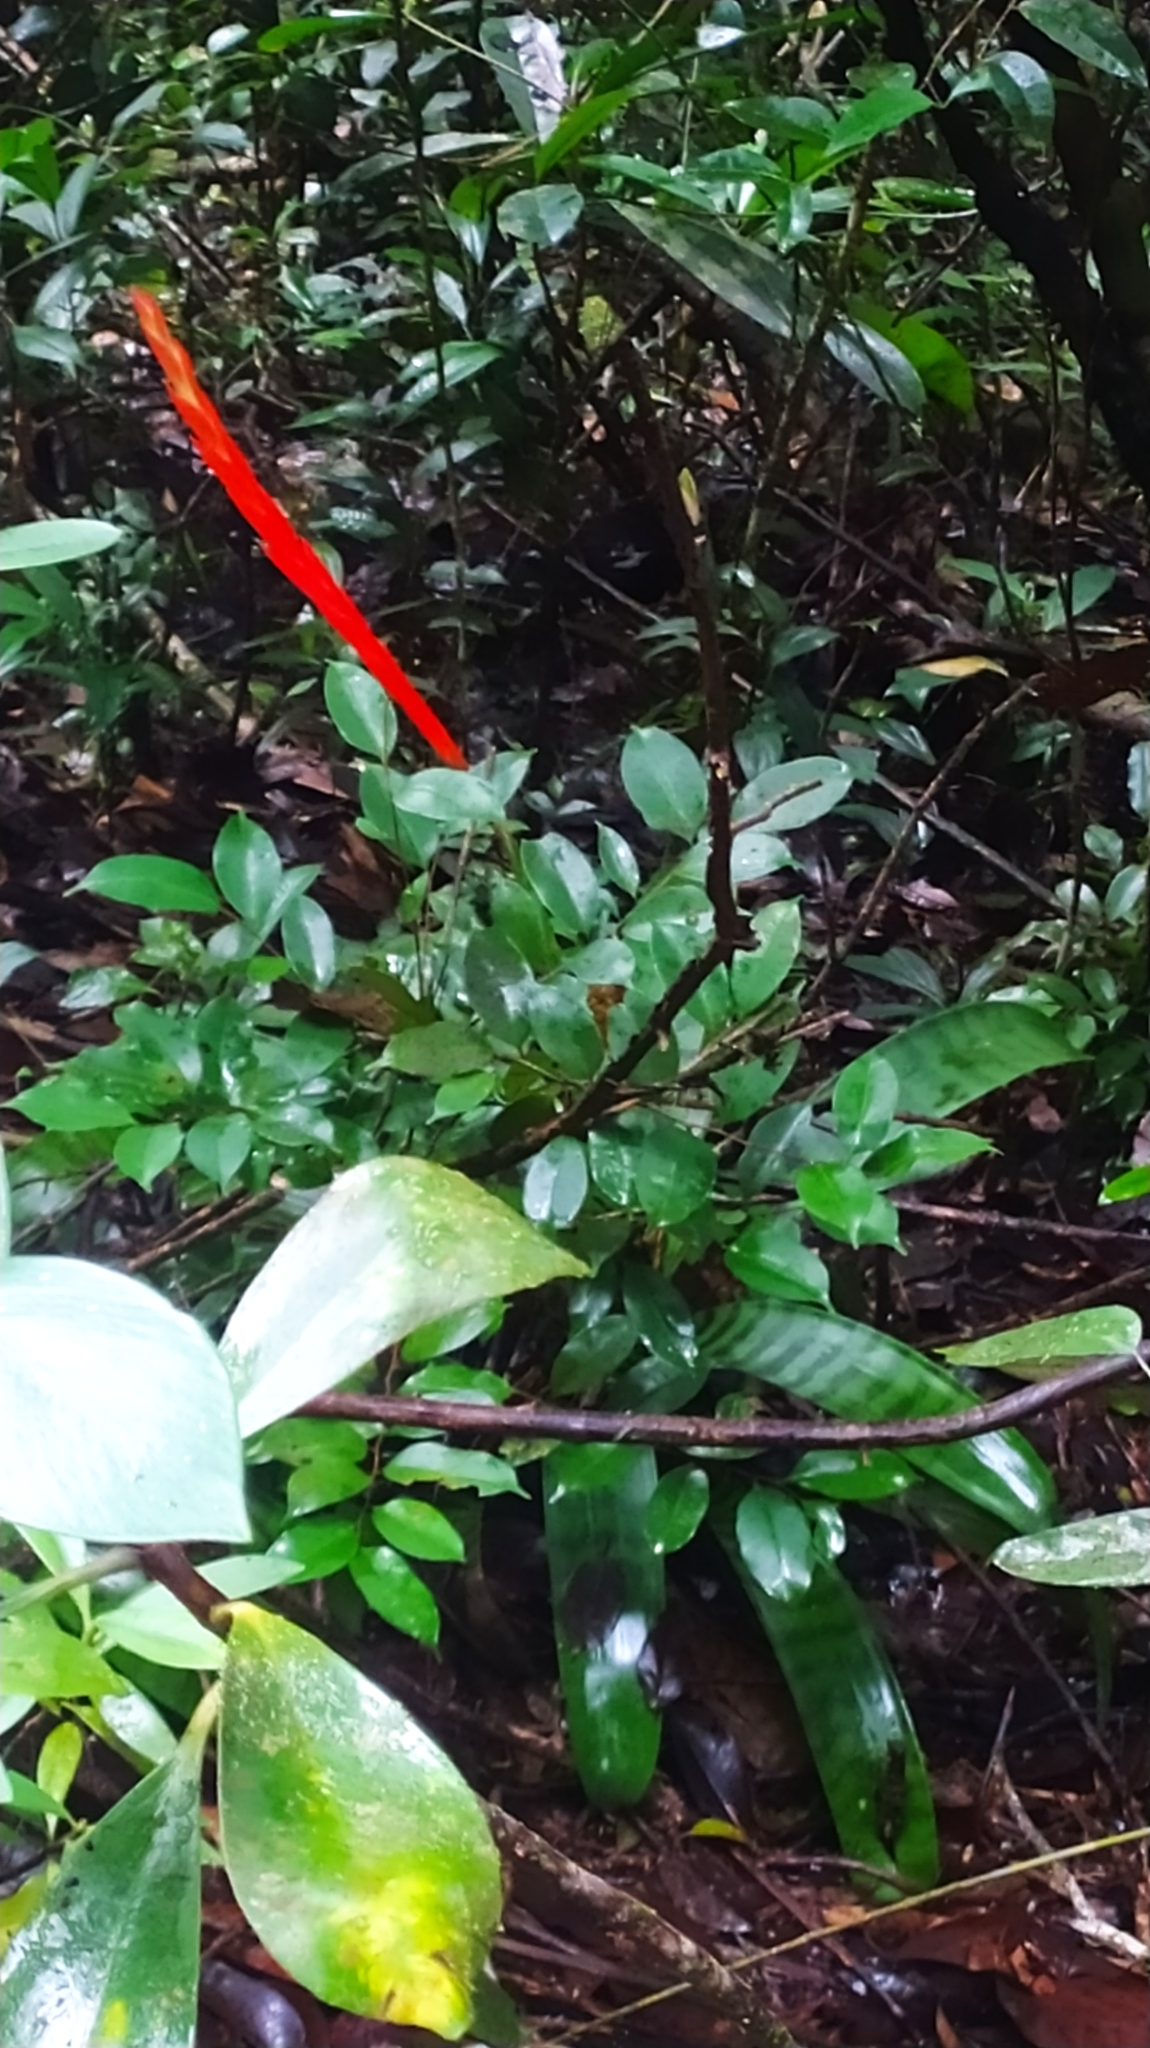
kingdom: Plantae
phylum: Tracheophyta
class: Liliopsida
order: Poales
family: Bromeliaceae
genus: Lutheria
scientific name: Lutheria splendens
